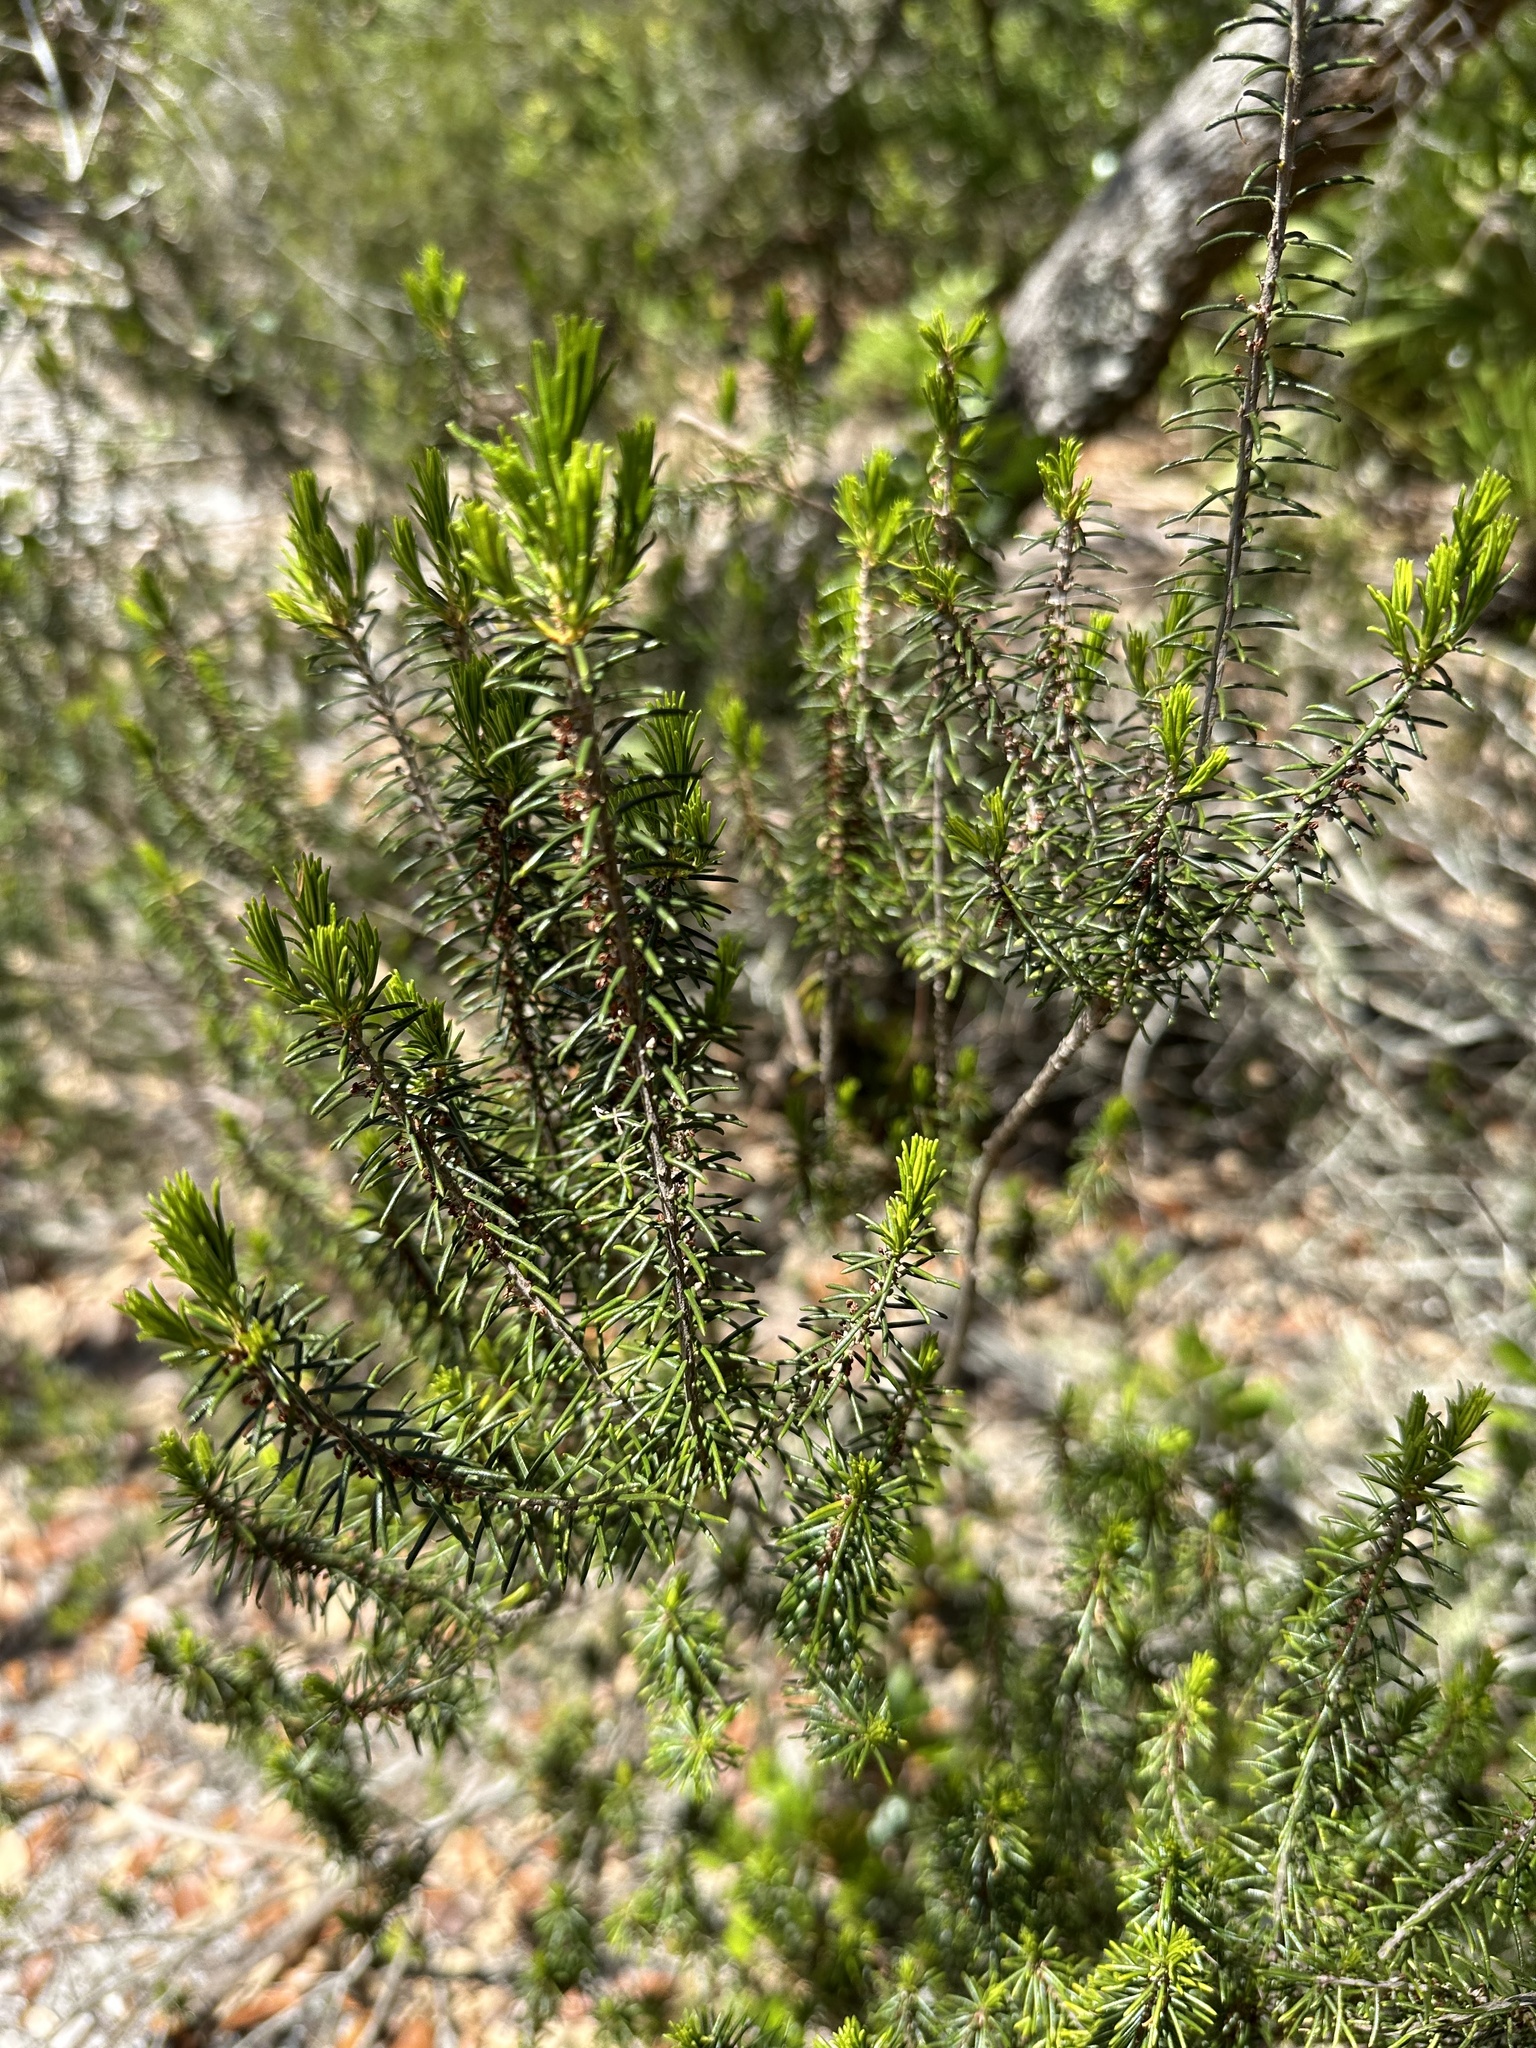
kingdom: Plantae
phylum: Tracheophyta
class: Magnoliopsida
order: Ericales
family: Ericaceae
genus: Ceratiola
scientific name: Ceratiola ericoides
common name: Sandhill-rosemary
